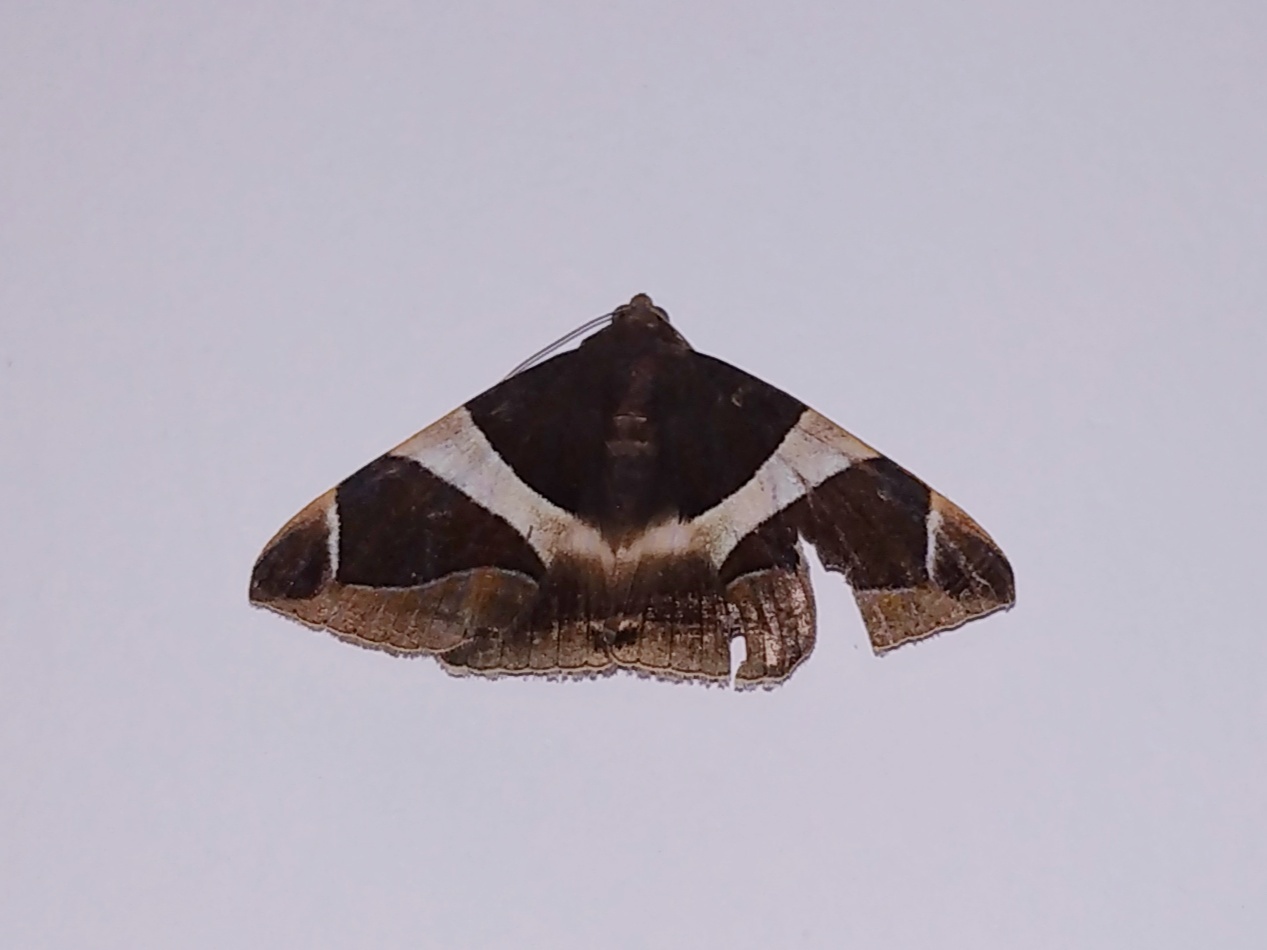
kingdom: Animalia
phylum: Arthropoda
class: Insecta
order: Lepidoptera
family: Erebidae
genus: Bastilla
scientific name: Bastilla crameri
